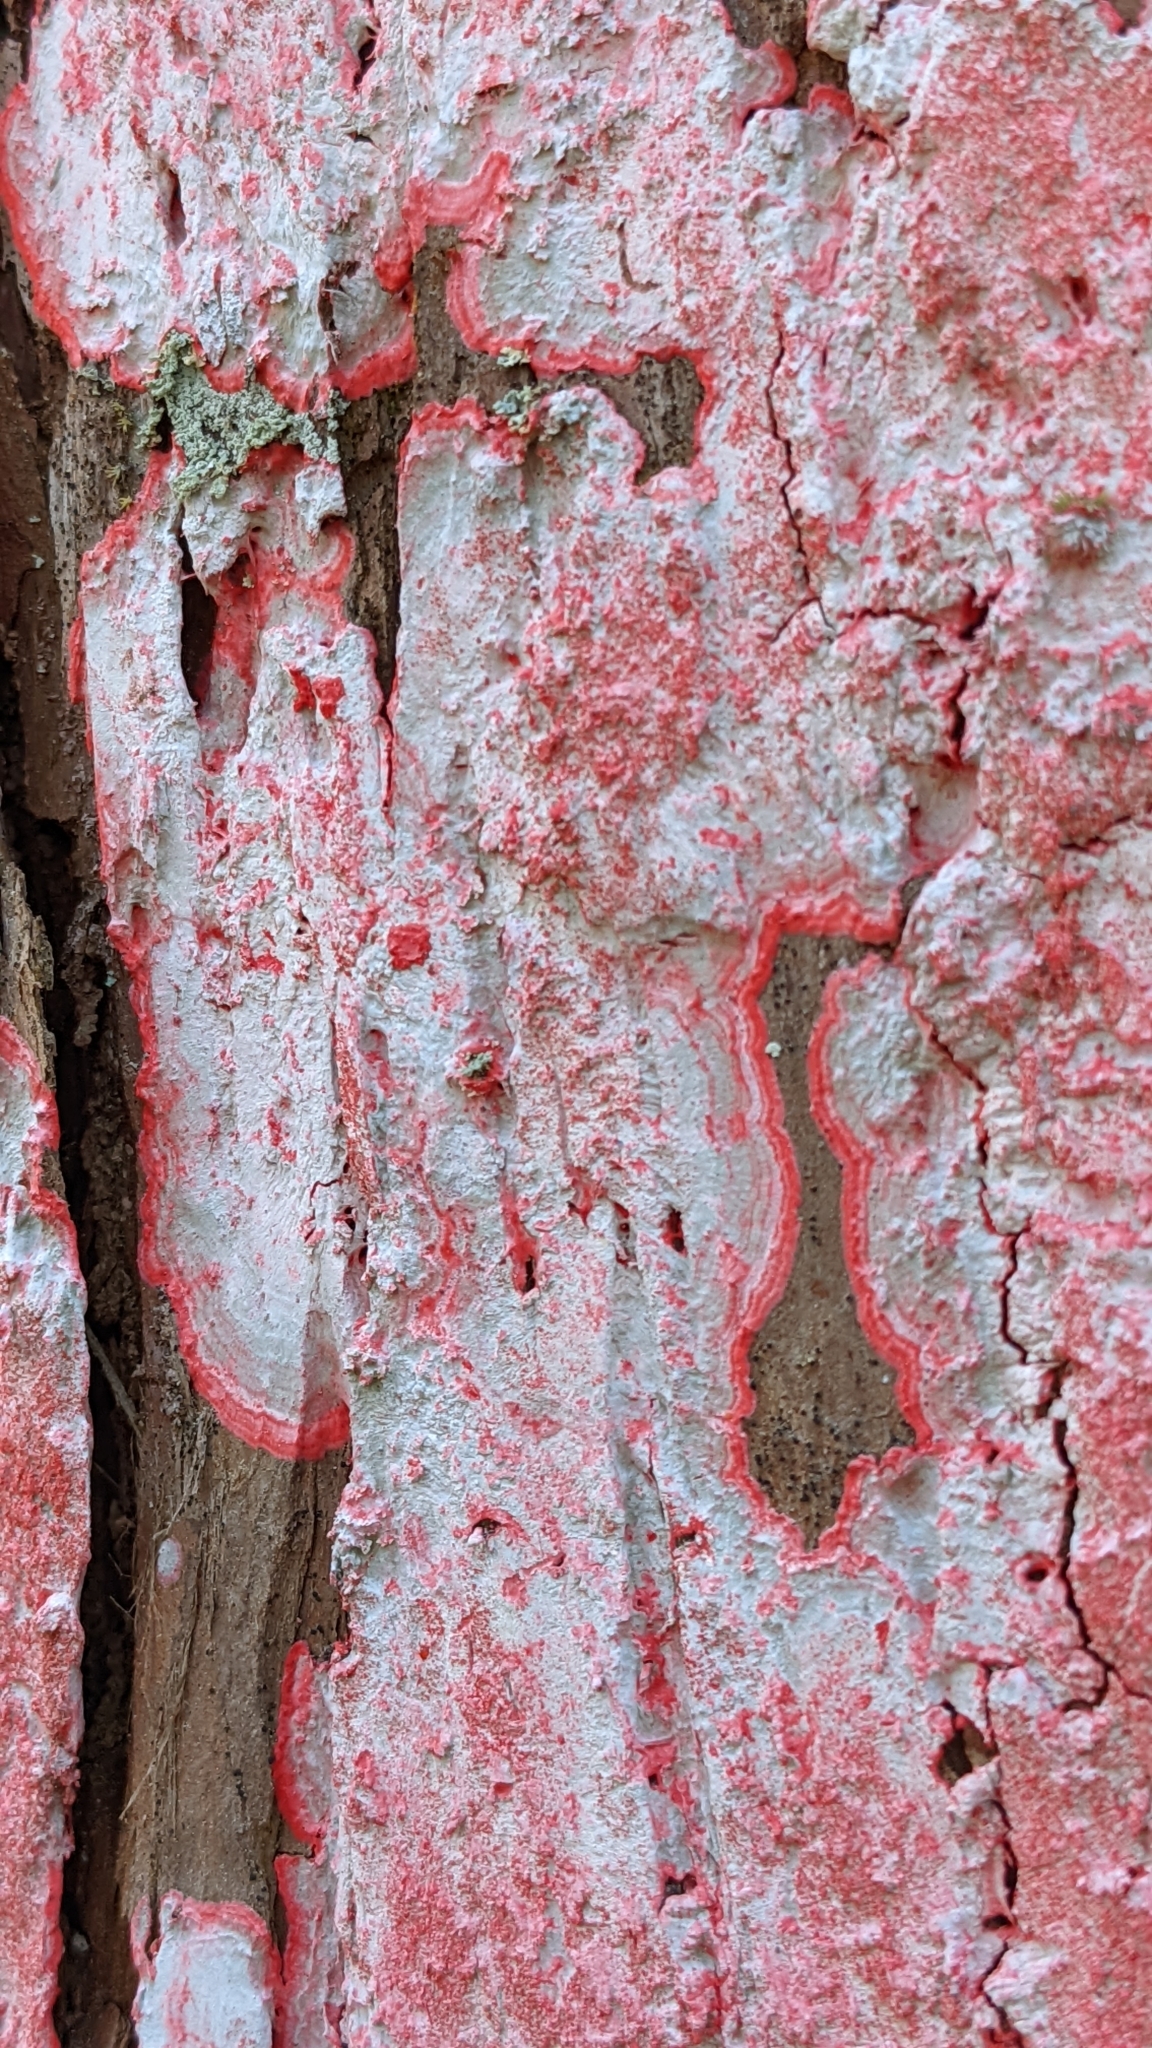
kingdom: Fungi
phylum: Ascomycota
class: Arthoniomycetes
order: Arthoniales
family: Arthoniaceae
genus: Herpothallon
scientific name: Herpothallon rubrocinctum
